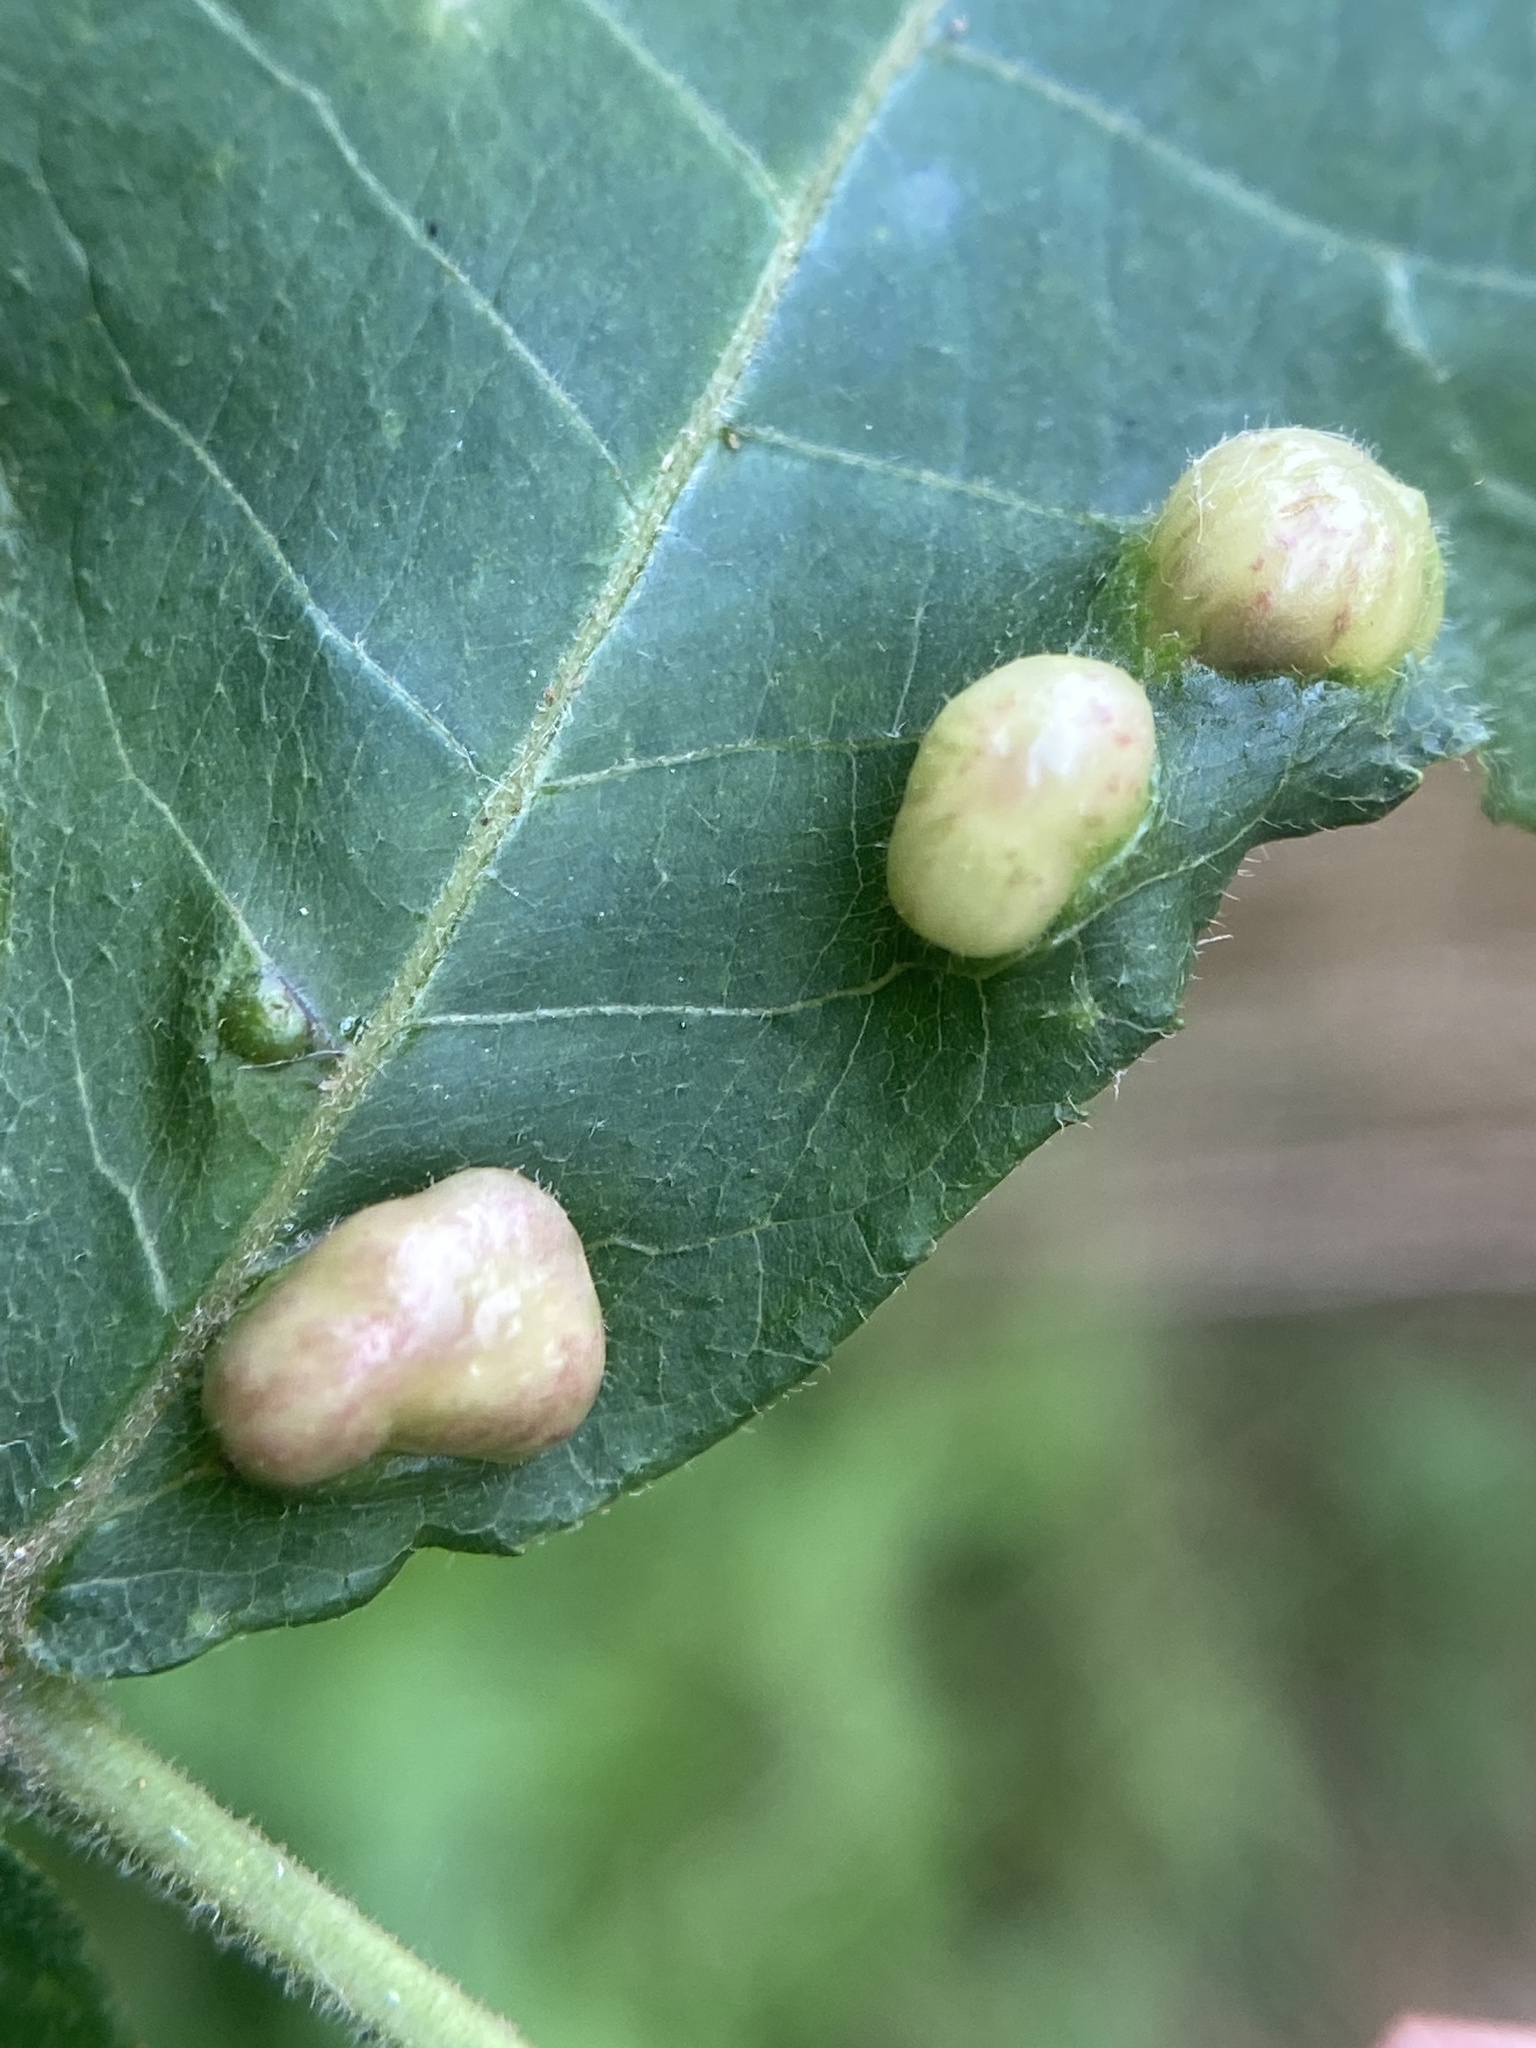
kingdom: Animalia
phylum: Arthropoda
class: Insecta
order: Hemiptera
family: Phylloxeridae
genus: Daktulosphaira
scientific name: Daktulosphaira conicum
